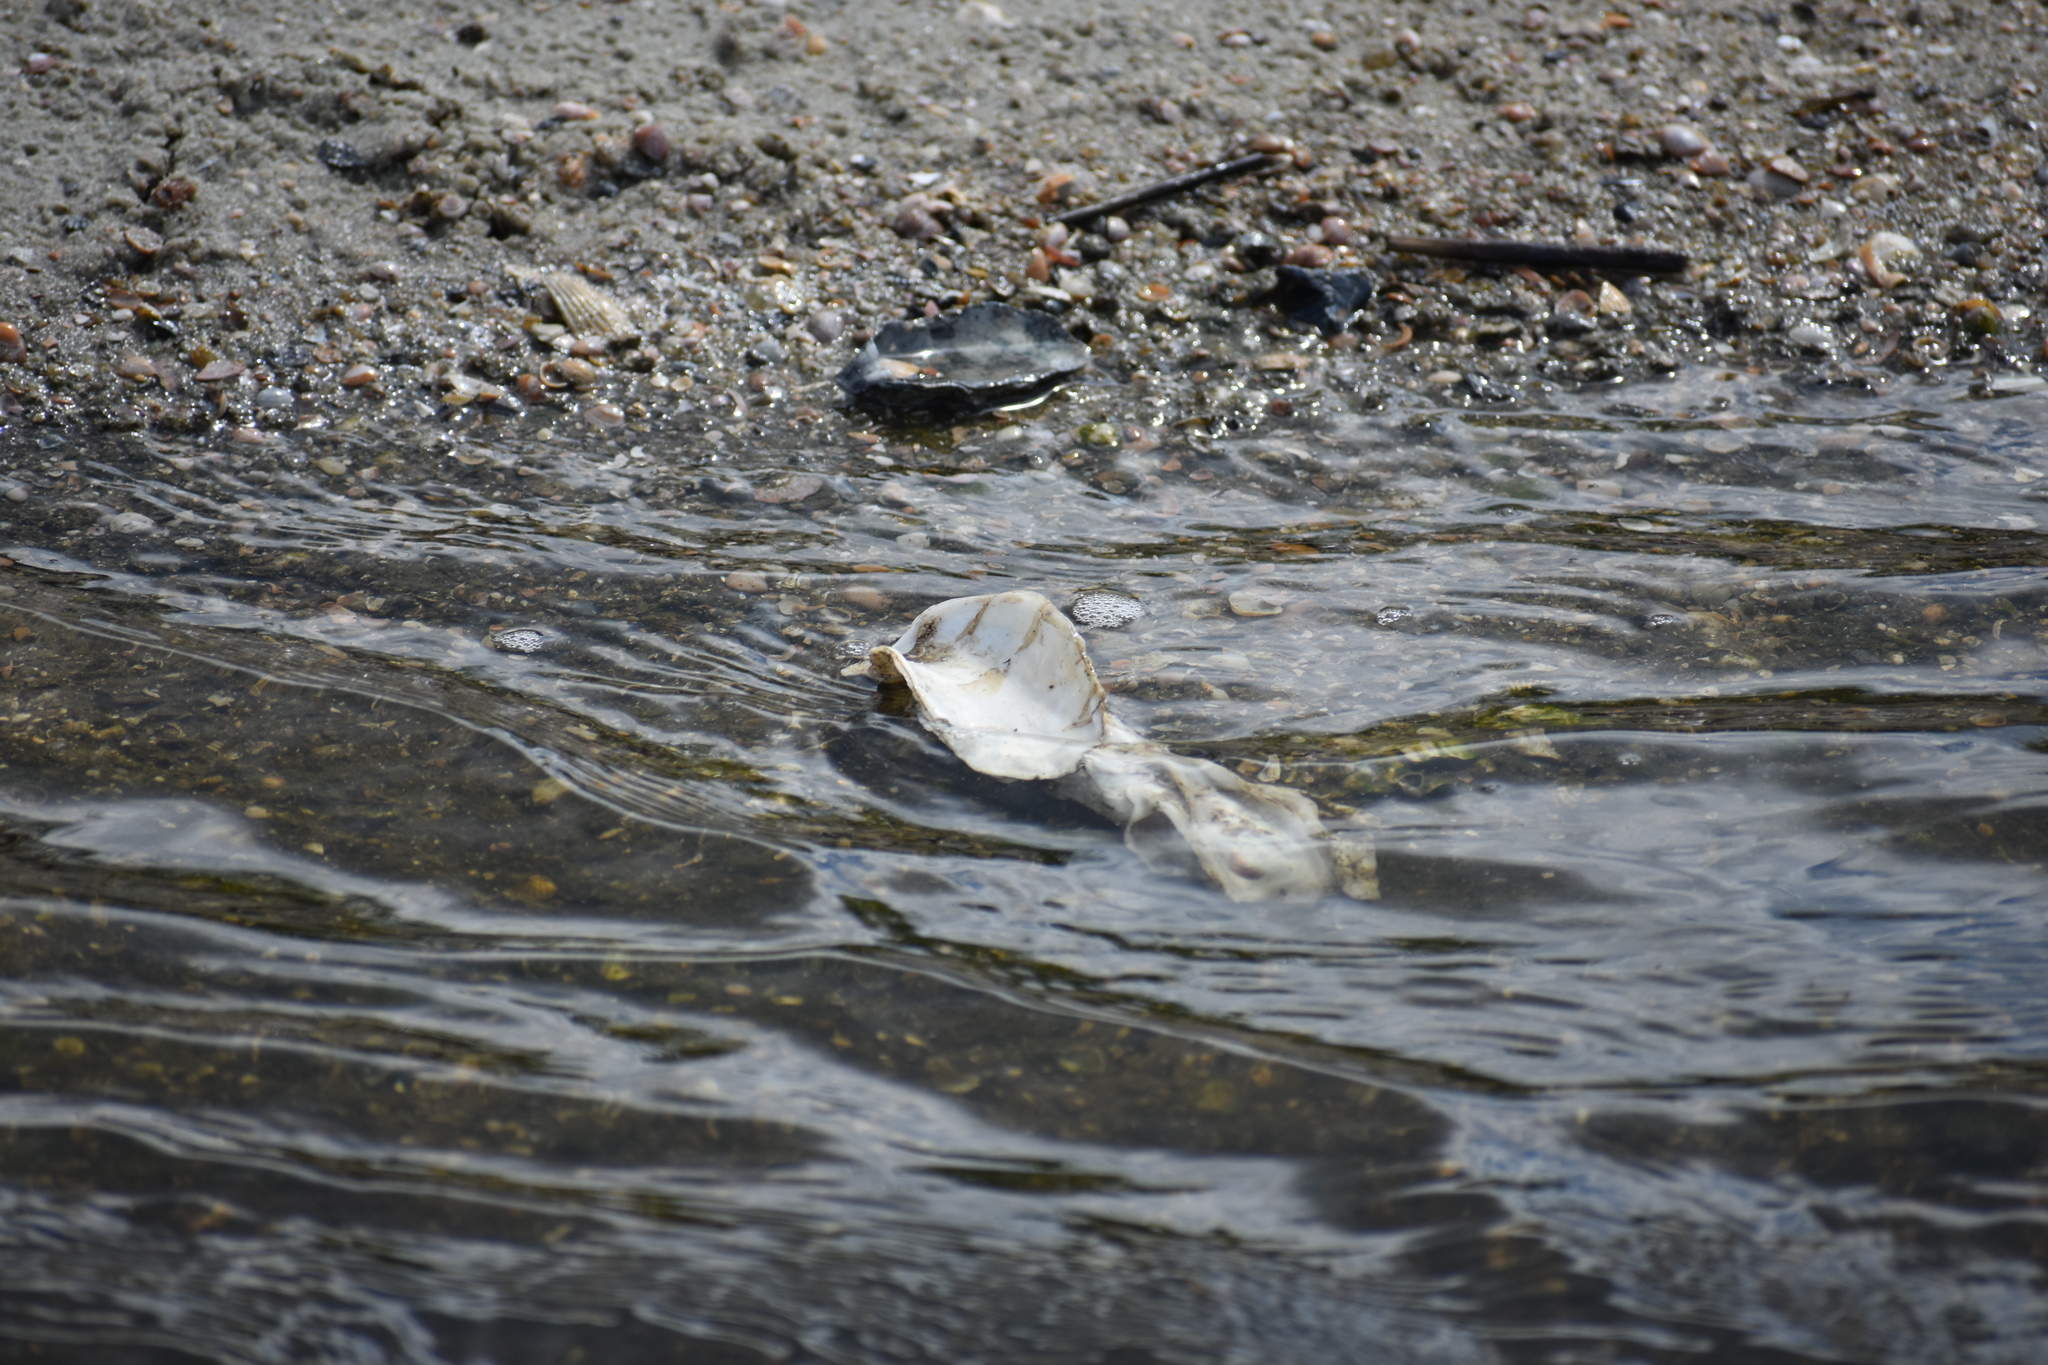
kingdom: Animalia
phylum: Mollusca
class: Bivalvia
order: Ostreida
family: Ostreidae
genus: Crassostrea
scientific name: Crassostrea virginica
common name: American oyster
